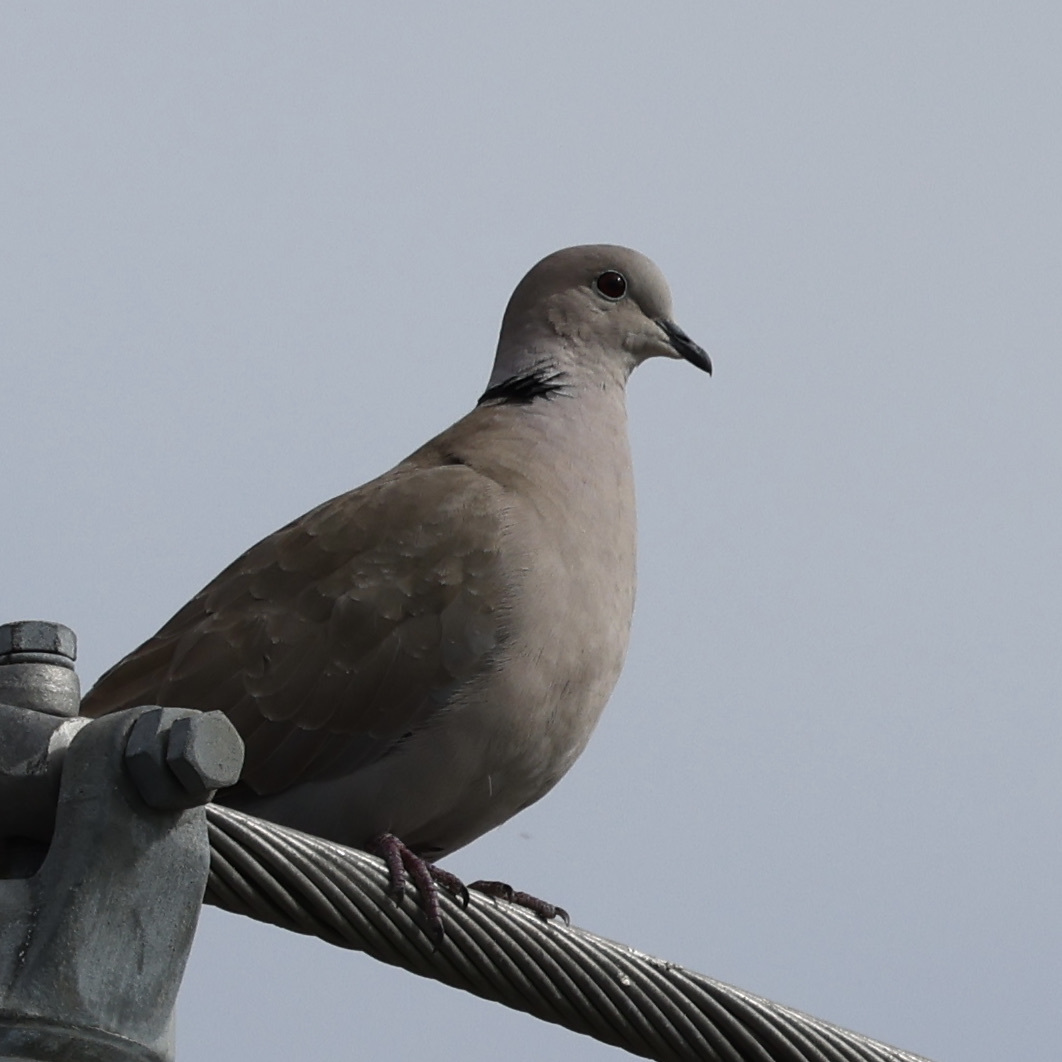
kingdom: Animalia
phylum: Chordata
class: Aves
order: Columbiformes
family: Columbidae
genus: Streptopelia
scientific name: Streptopelia decaocto
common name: Eurasian collared dove
